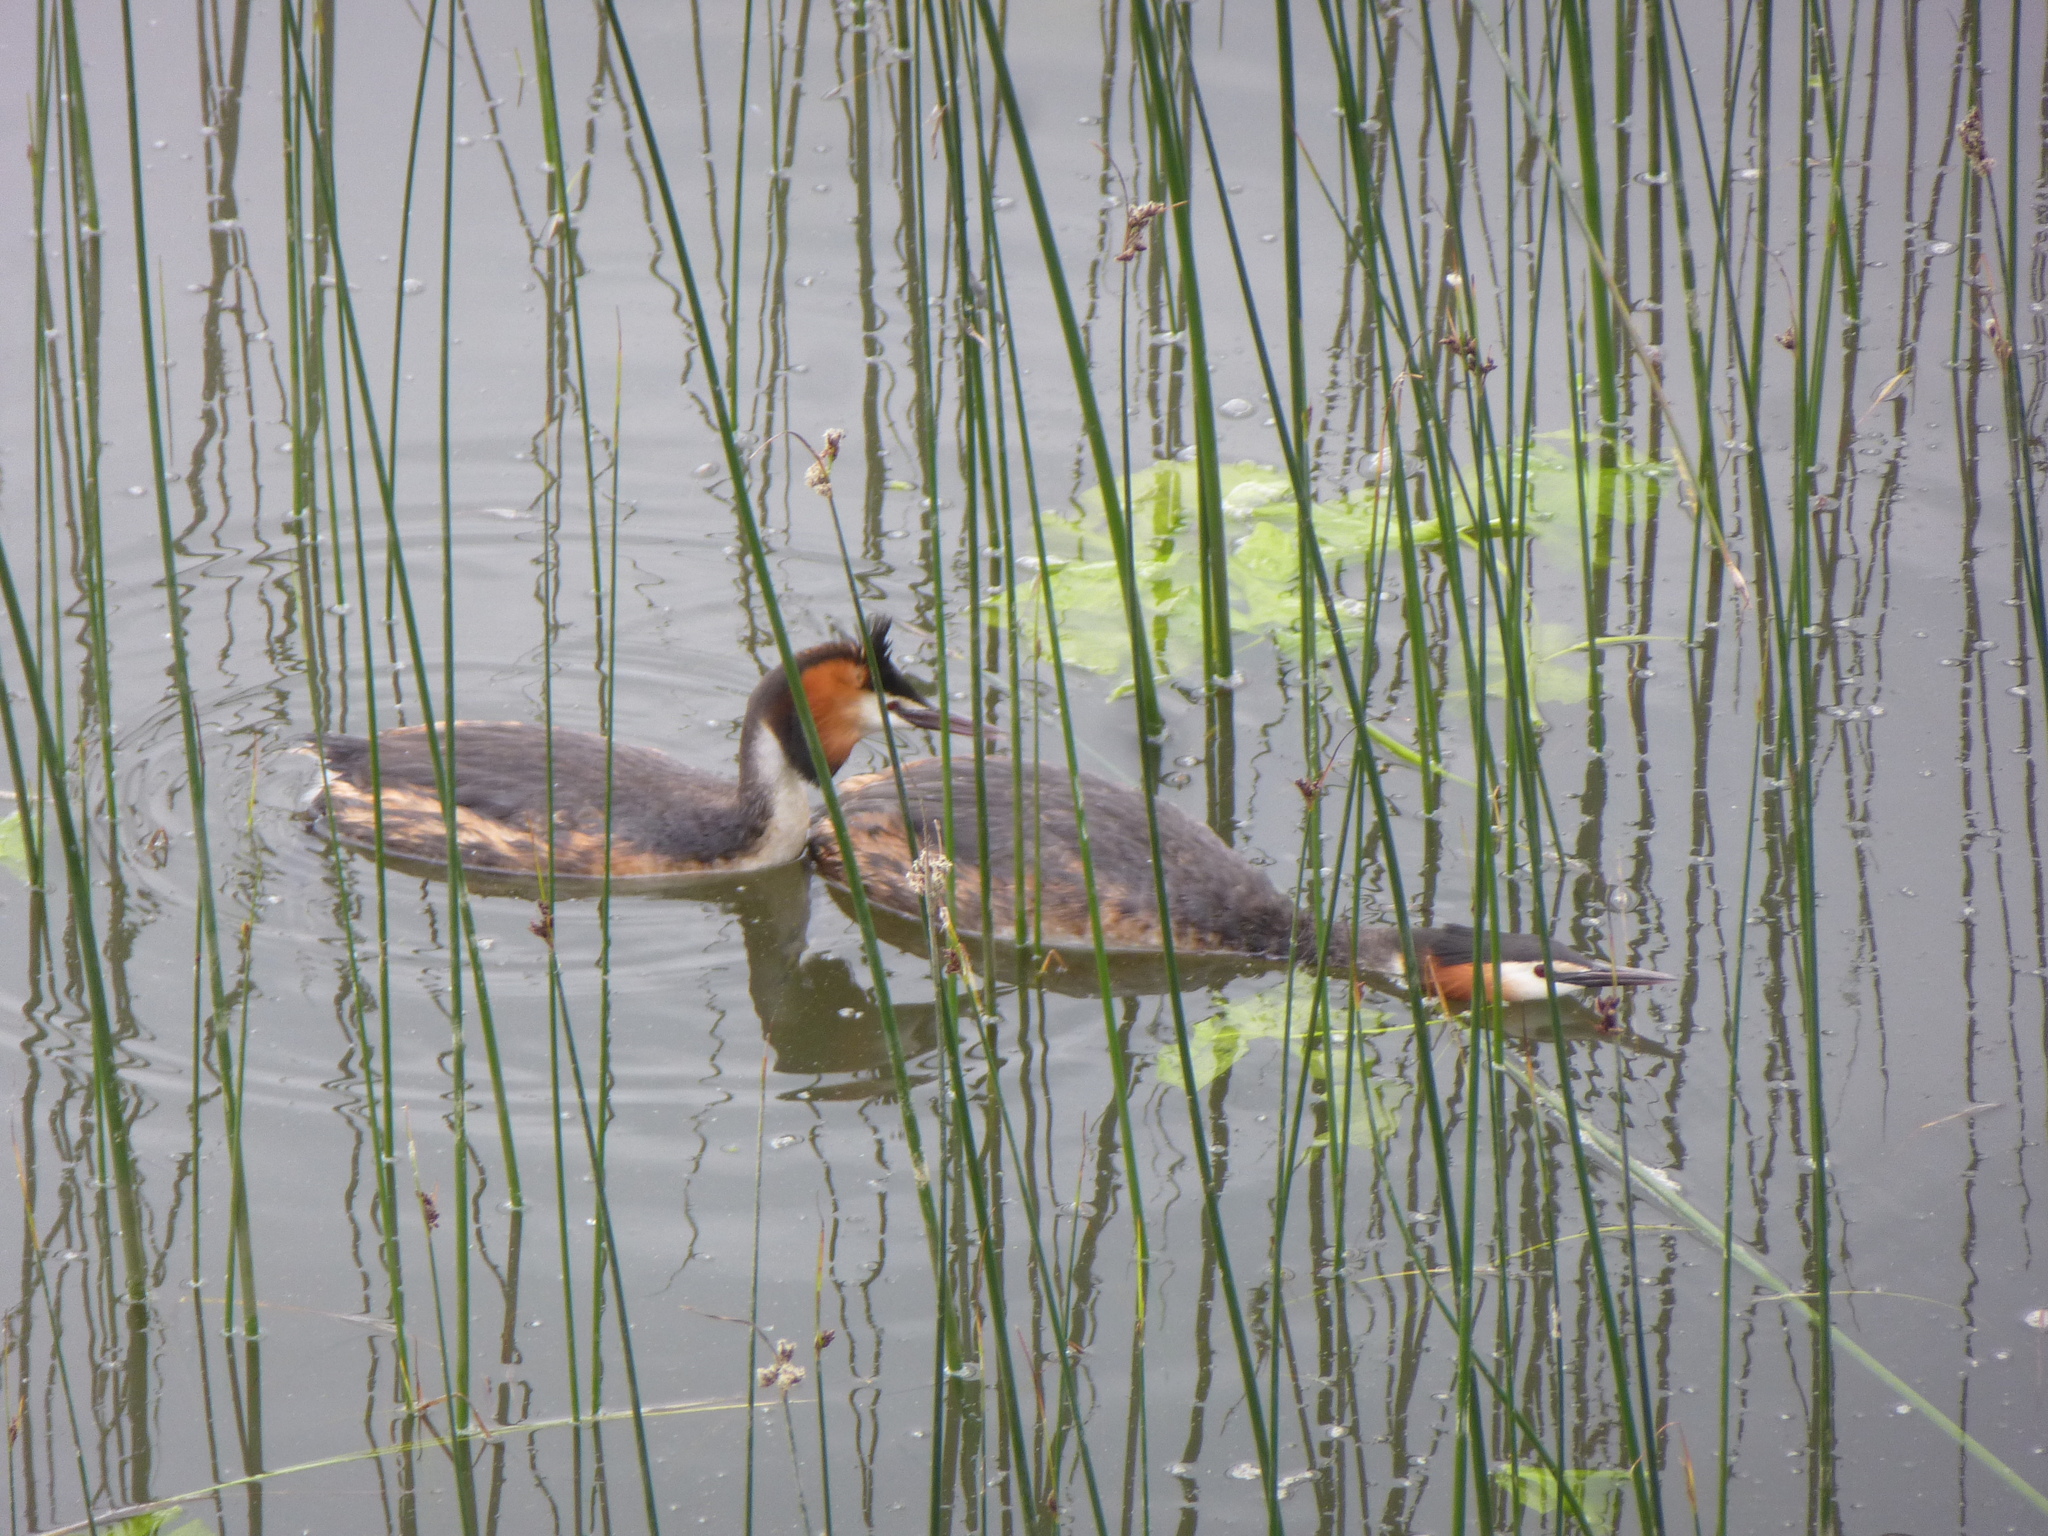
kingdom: Animalia
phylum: Chordata
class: Aves
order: Podicipediformes
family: Podicipedidae
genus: Podiceps
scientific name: Podiceps cristatus
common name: Great crested grebe
